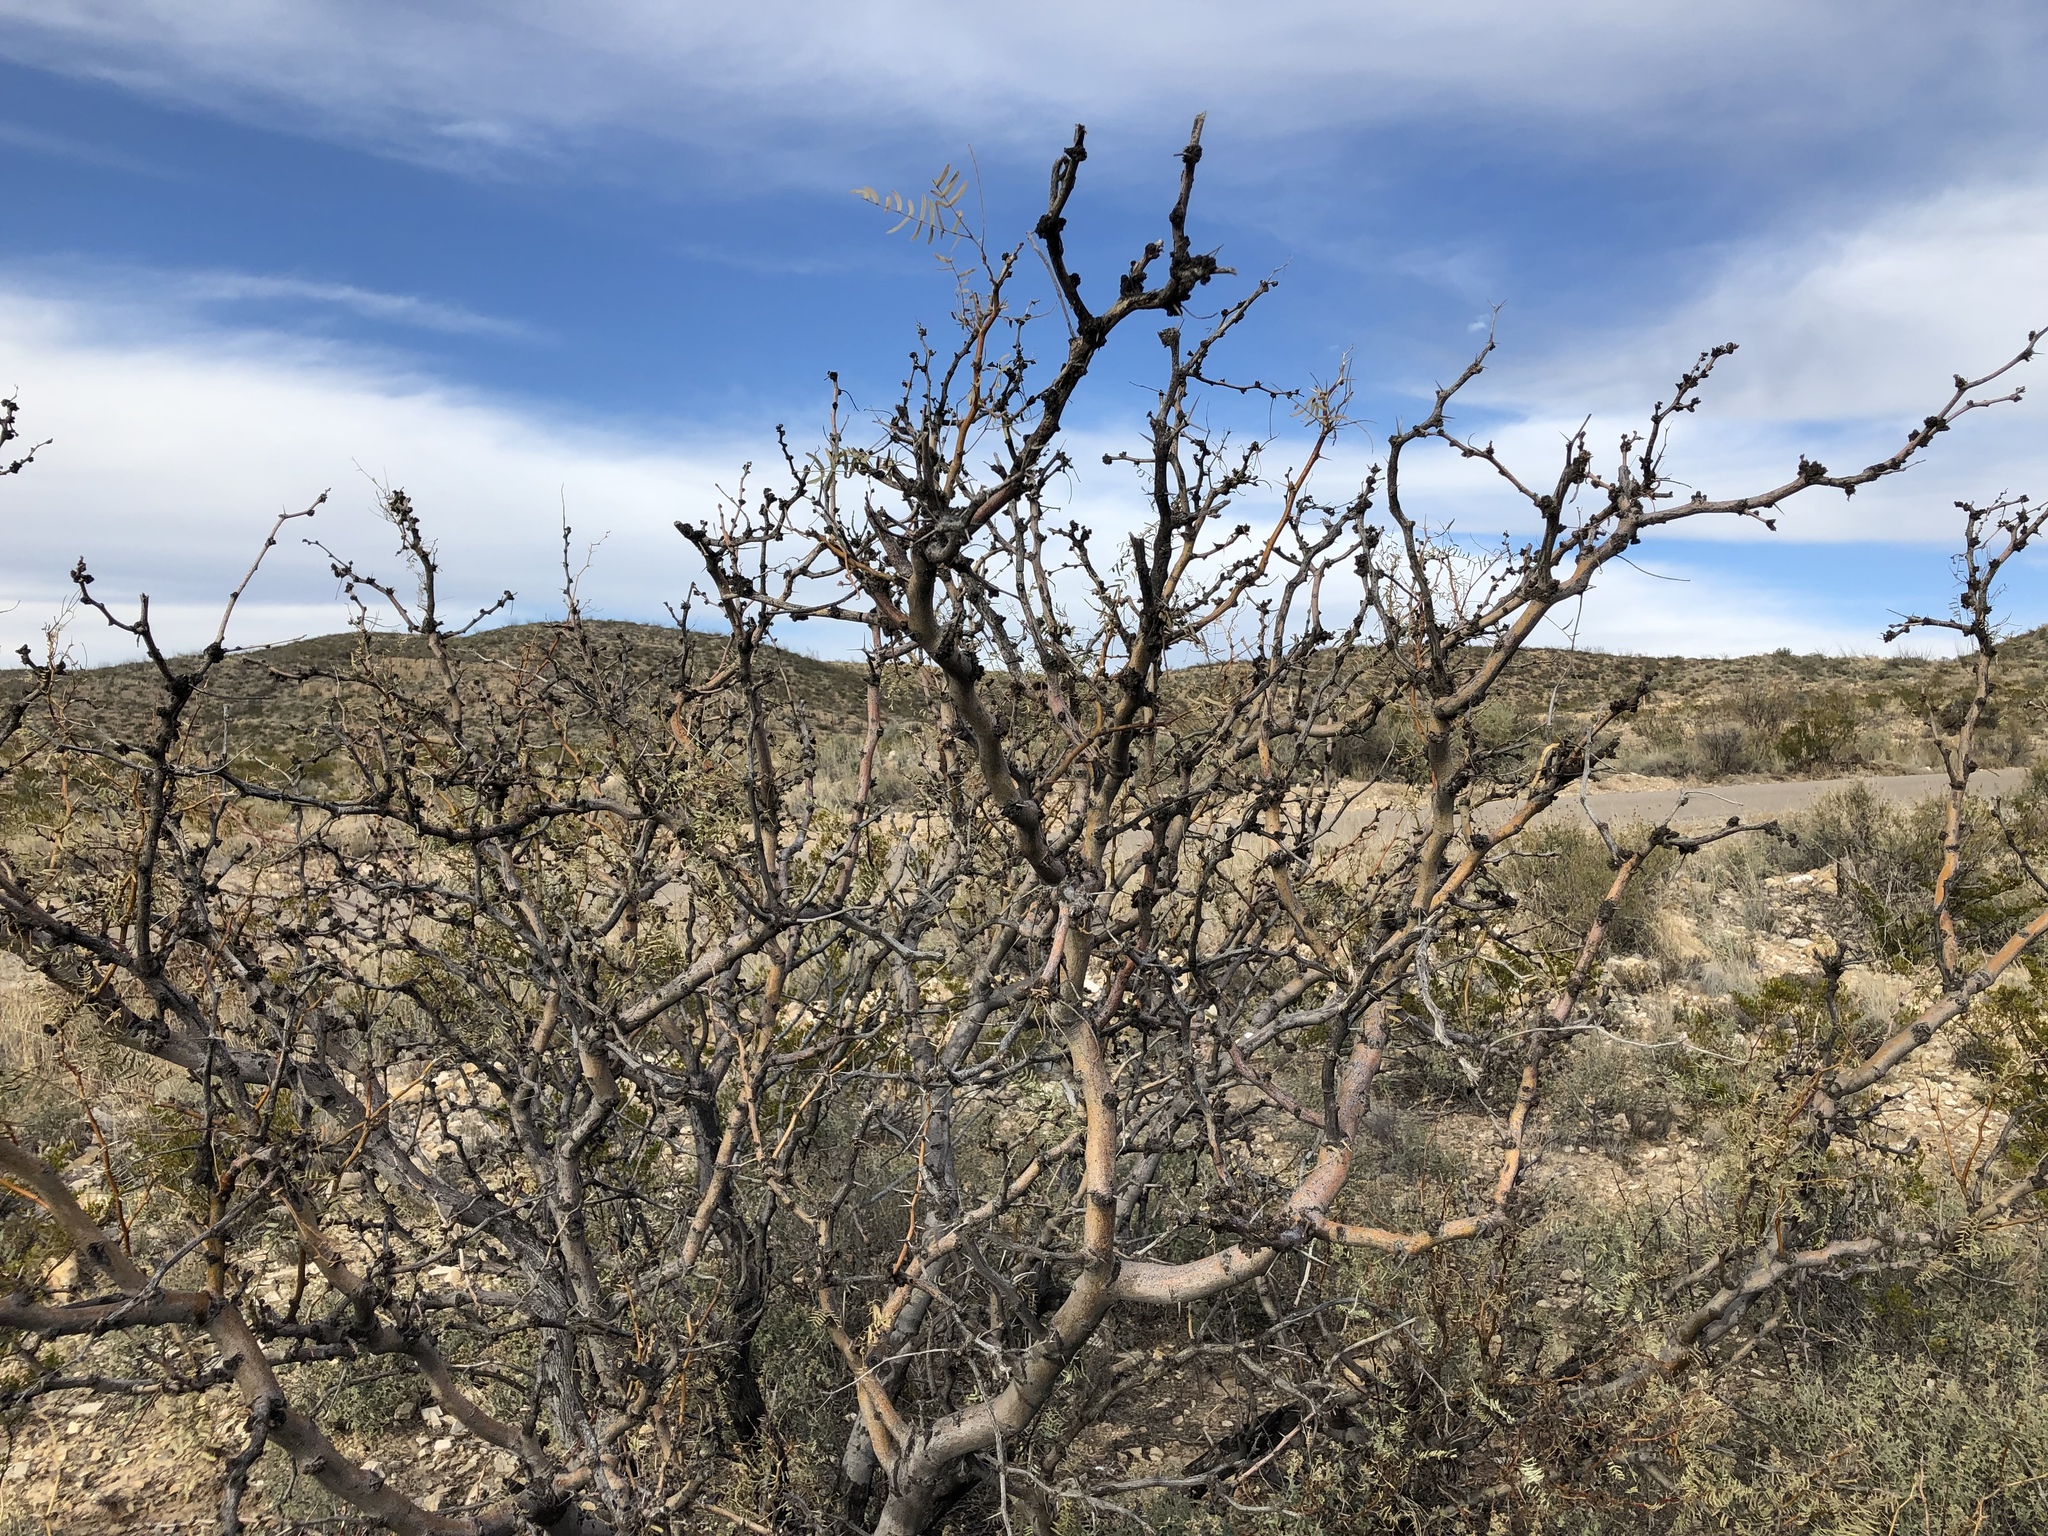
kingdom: Plantae
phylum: Tracheophyta
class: Magnoliopsida
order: Fabales
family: Fabaceae
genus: Prosopis
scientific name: Prosopis glandulosa
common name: Honey mesquite
